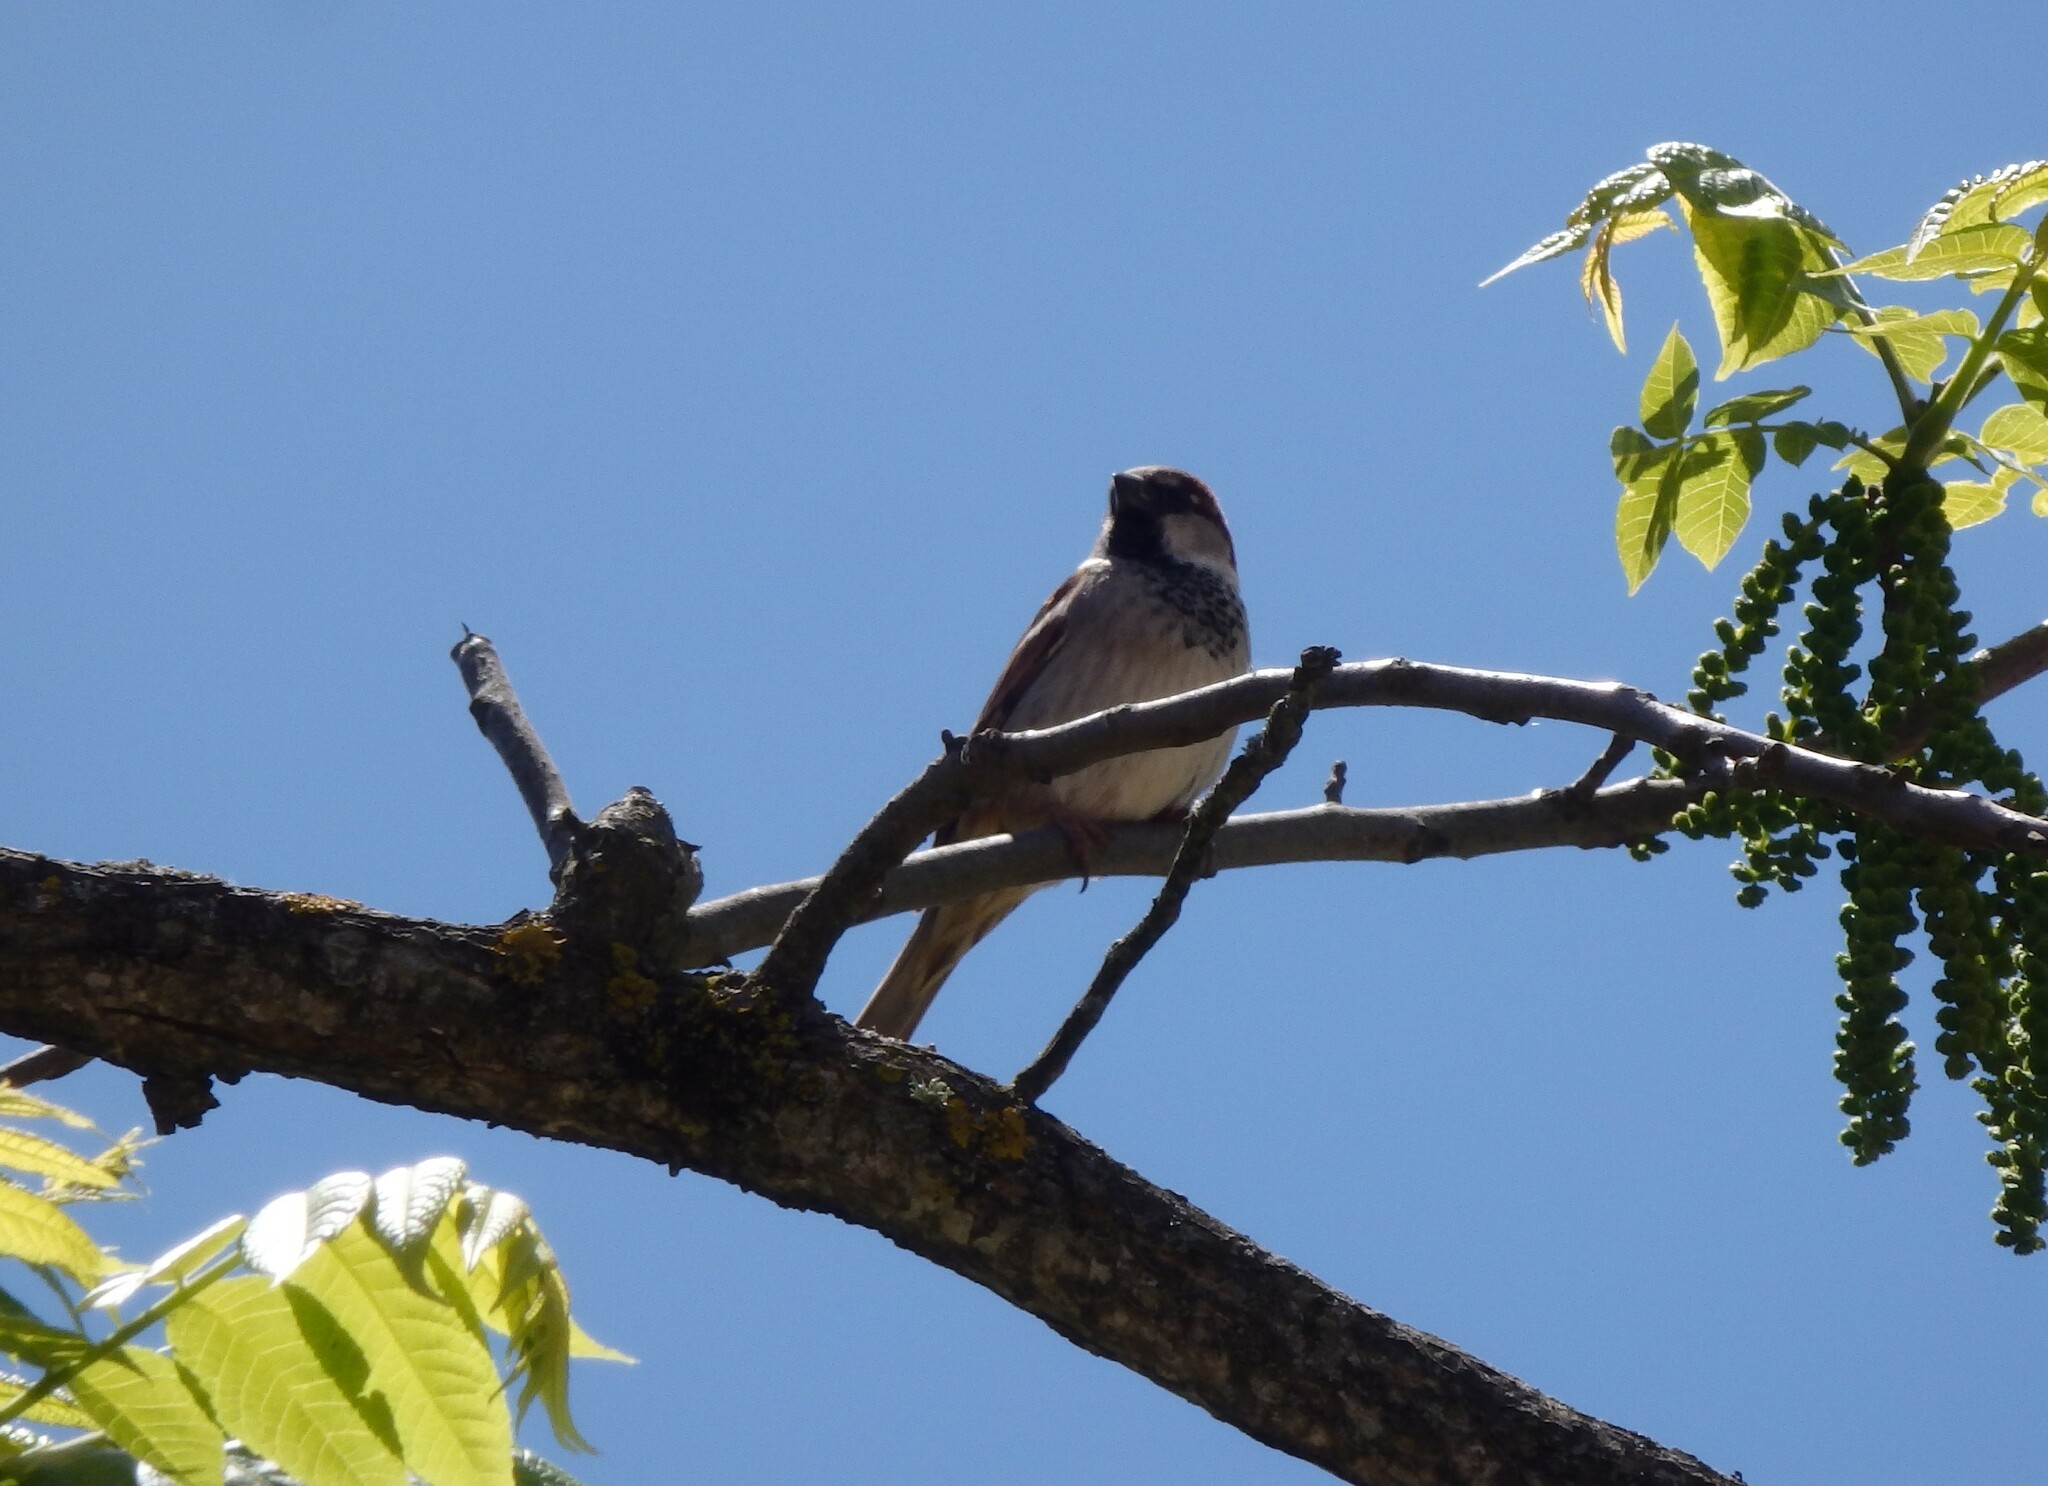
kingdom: Animalia
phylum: Chordata
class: Aves
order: Passeriformes
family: Passeridae
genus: Passer
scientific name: Passer domesticus
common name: House sparrow
